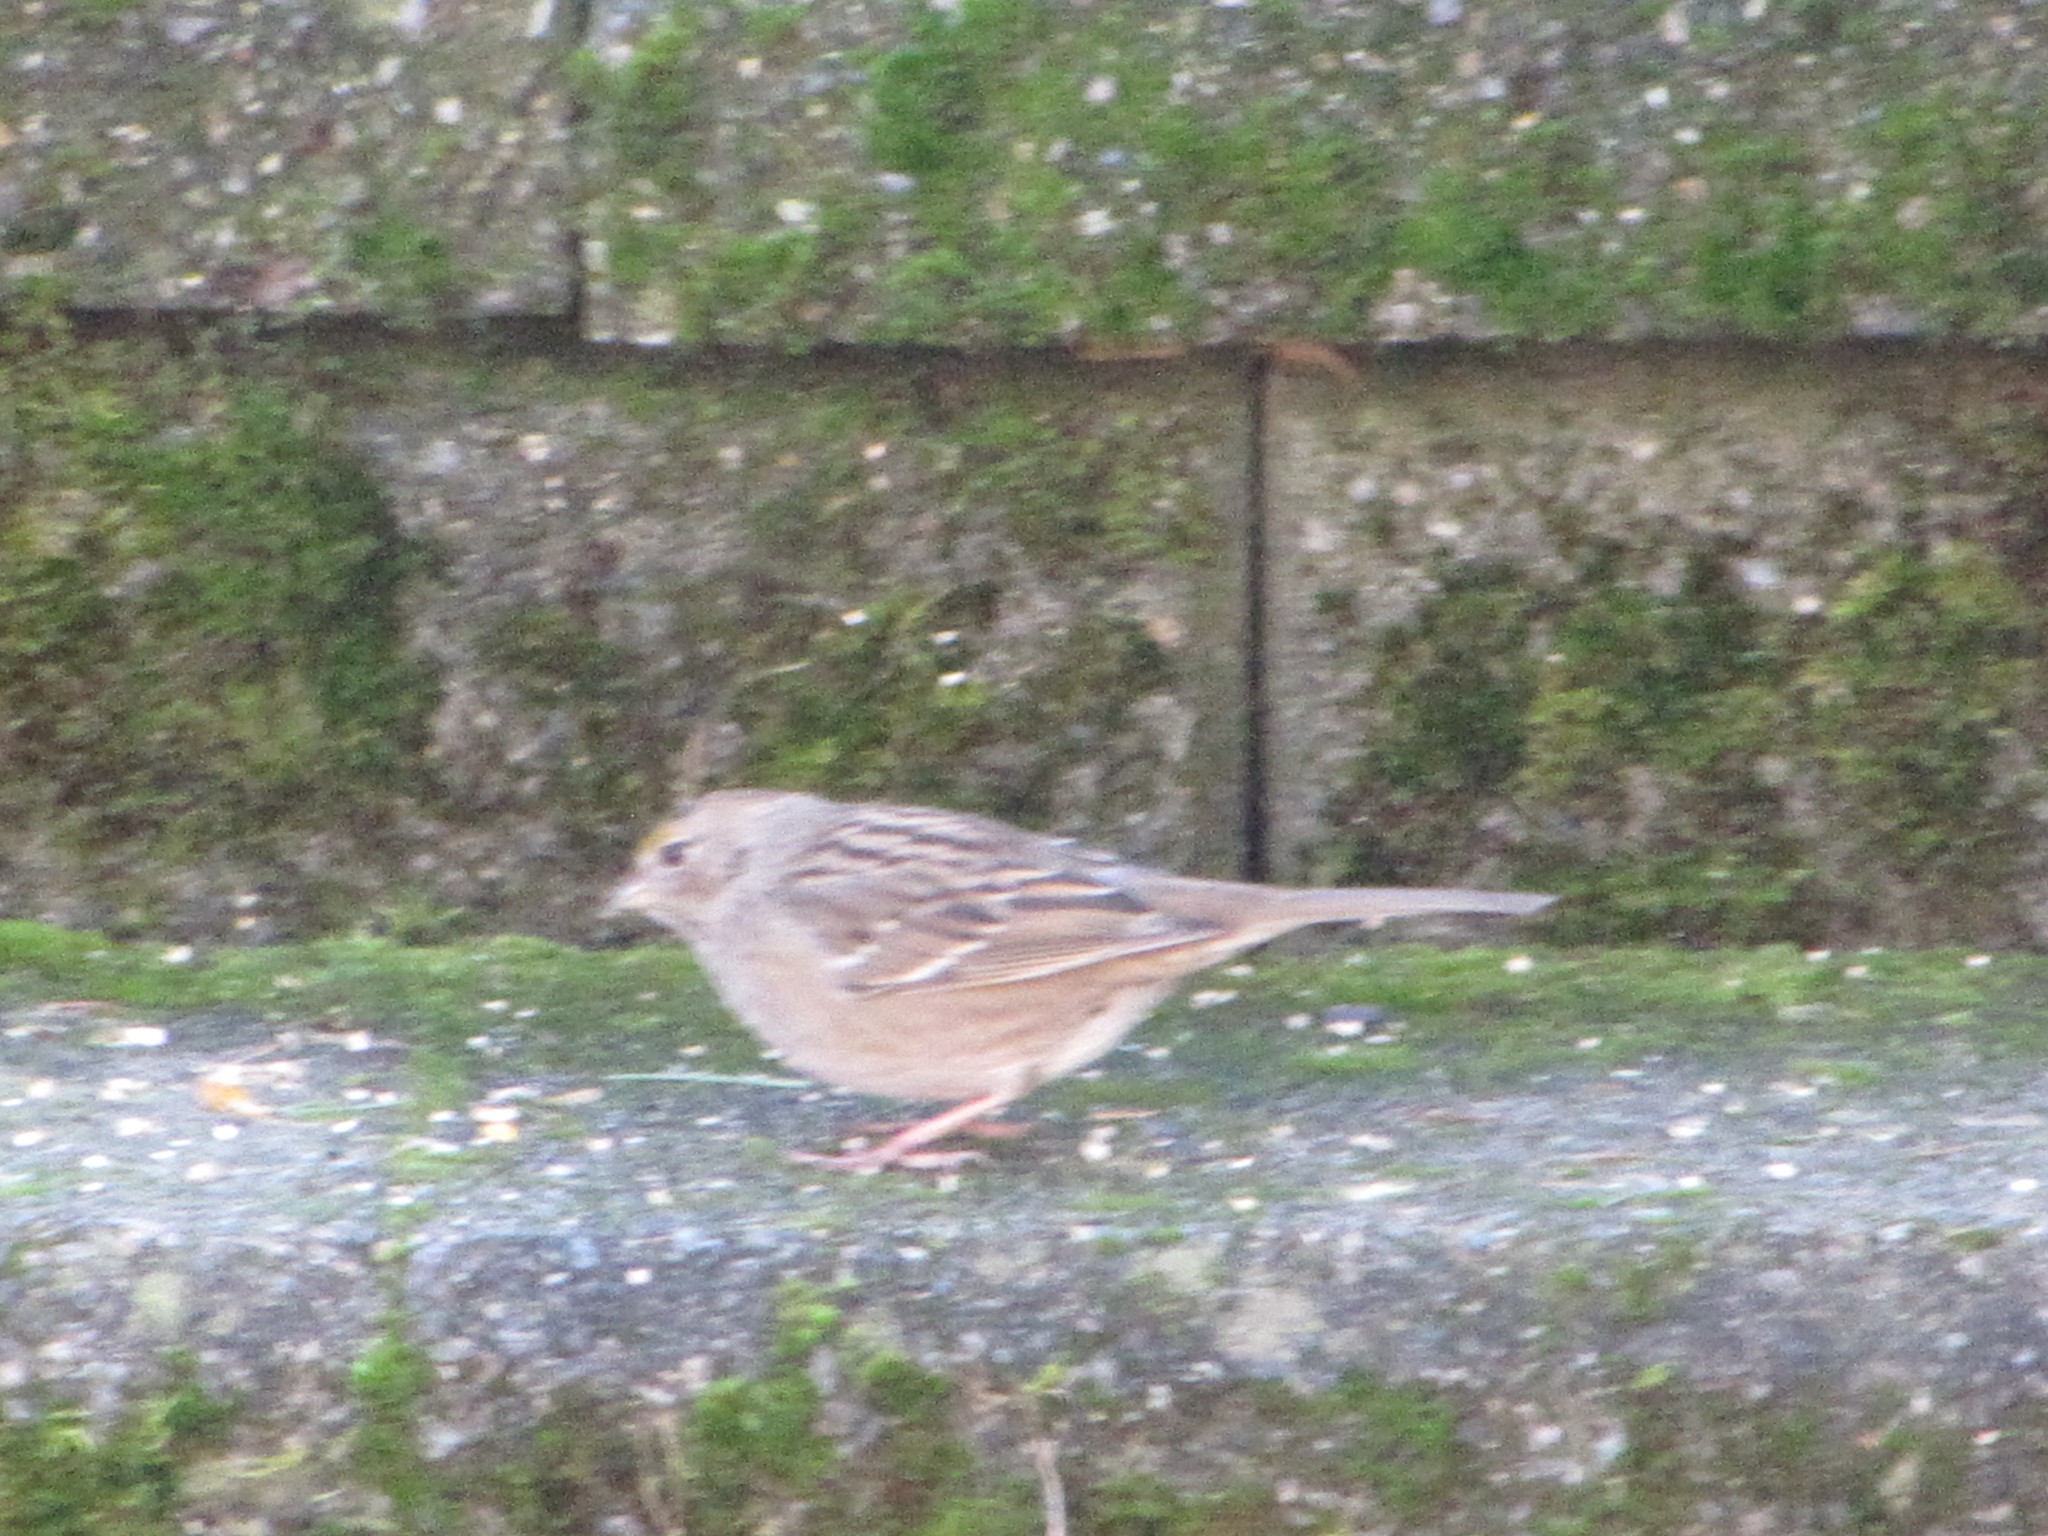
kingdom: Animalia
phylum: Chordata
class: Aves
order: Passeriformes
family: Passerellidae
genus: Zonotrichia
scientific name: Zonotrichia atricapilla
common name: Golden-crowned sparrow
